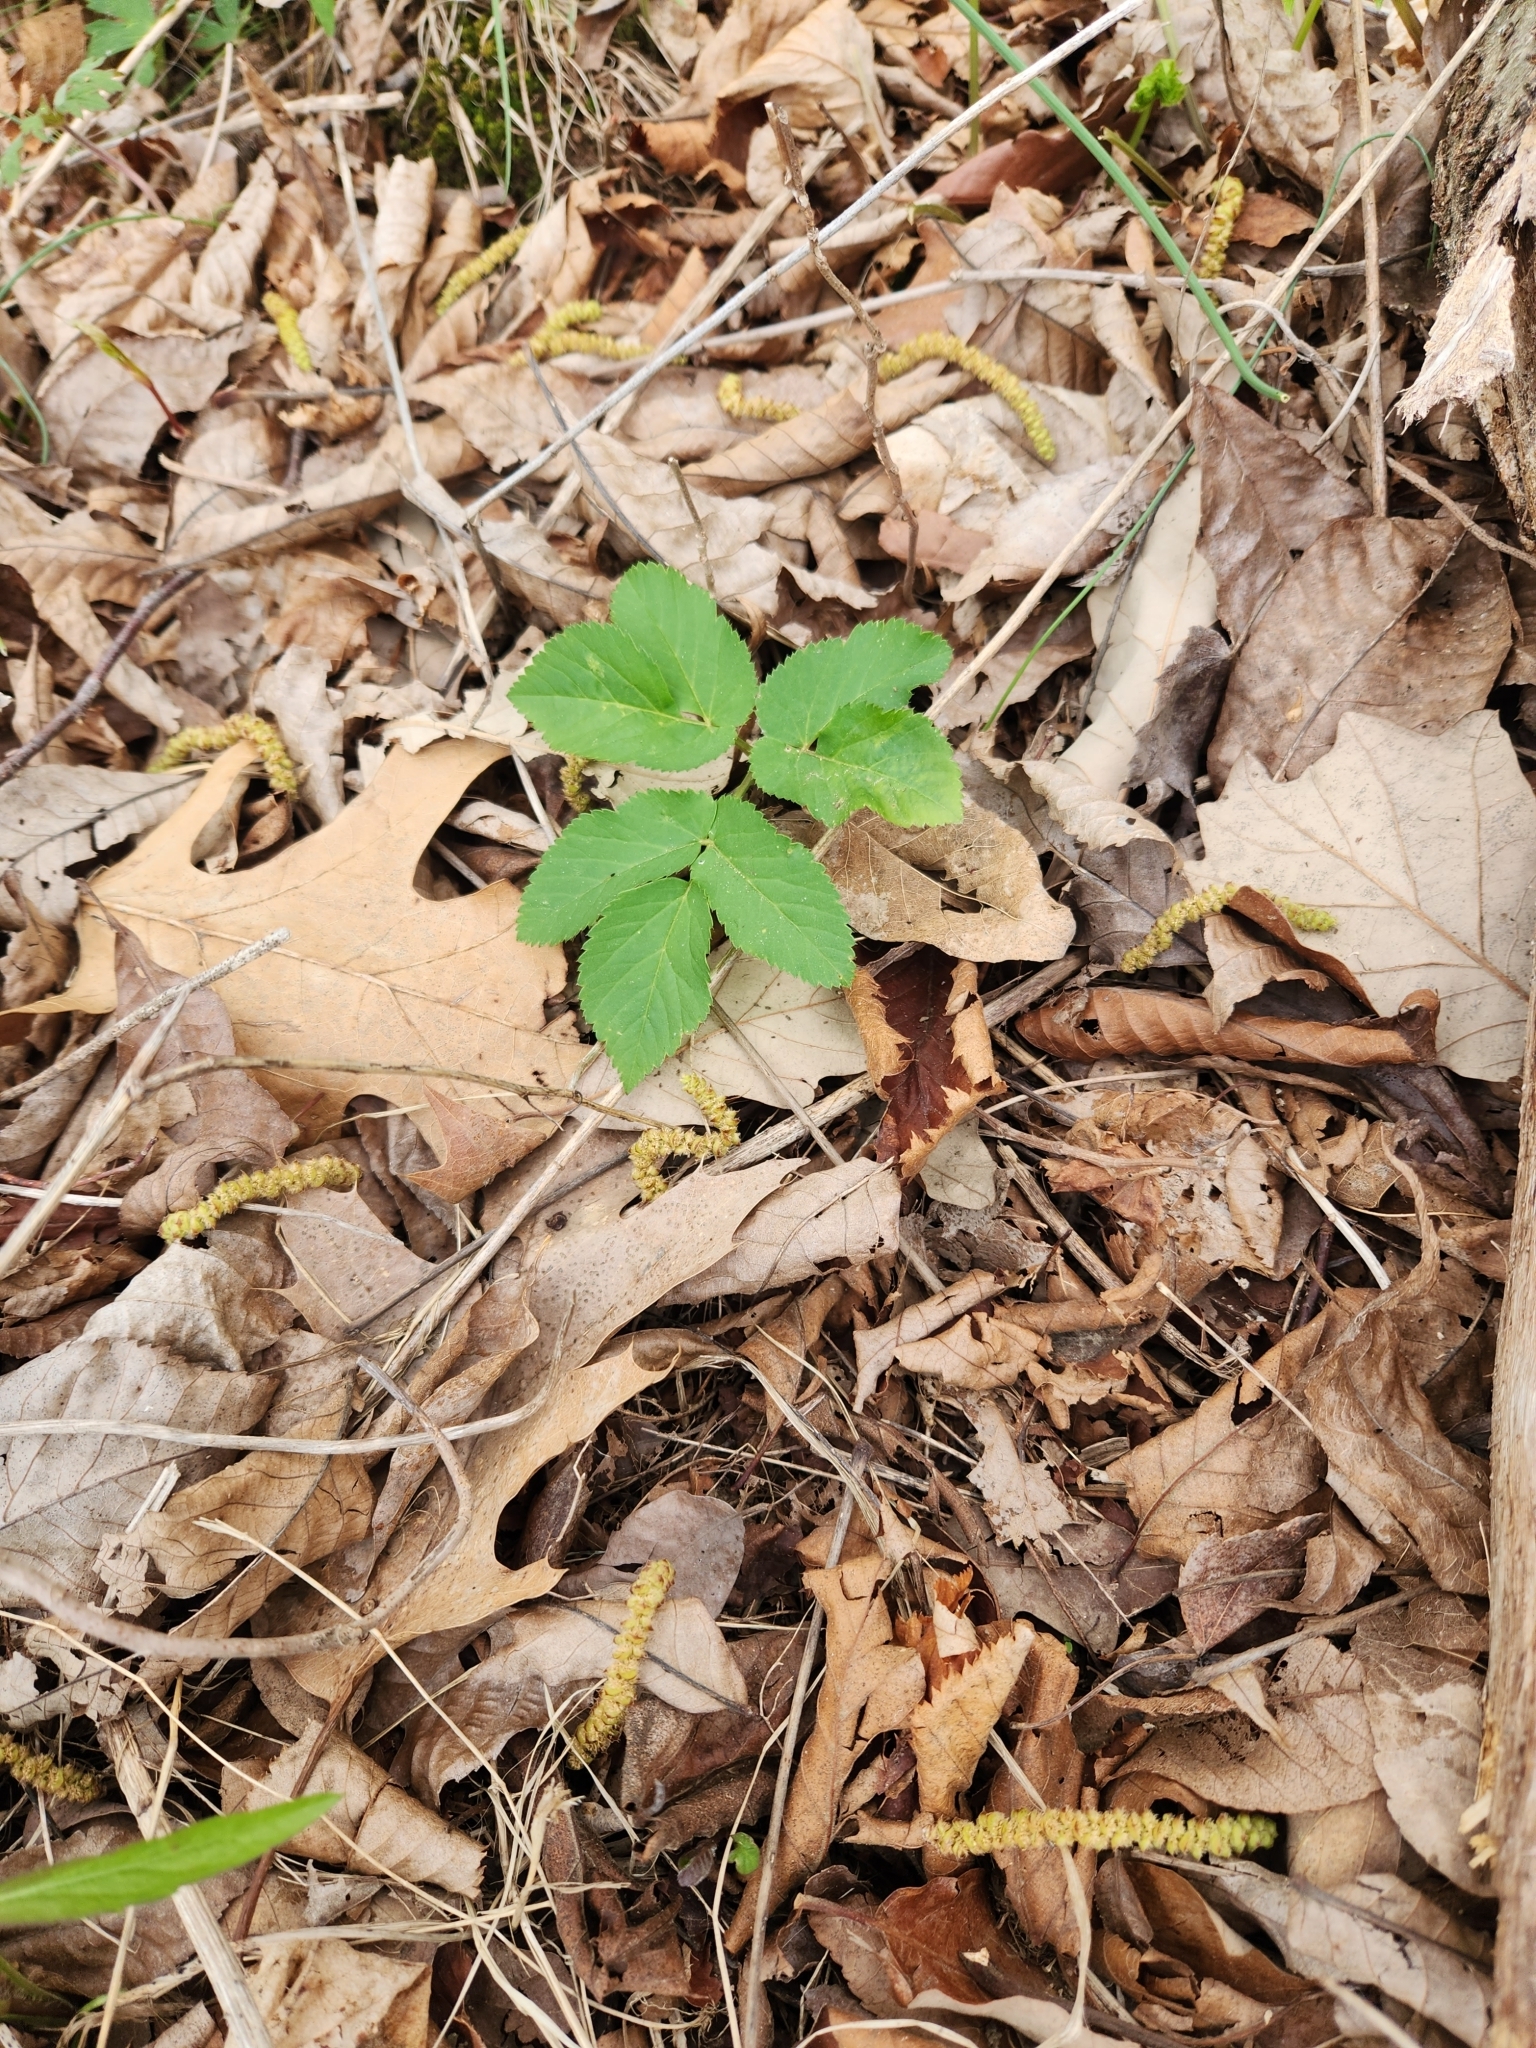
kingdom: Plantae
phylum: Tracheophyta
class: Magnoliopsida
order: Apiales
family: Apiaceae
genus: Aegopodium
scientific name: Aegopodium podagraria
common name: Ground-elder
